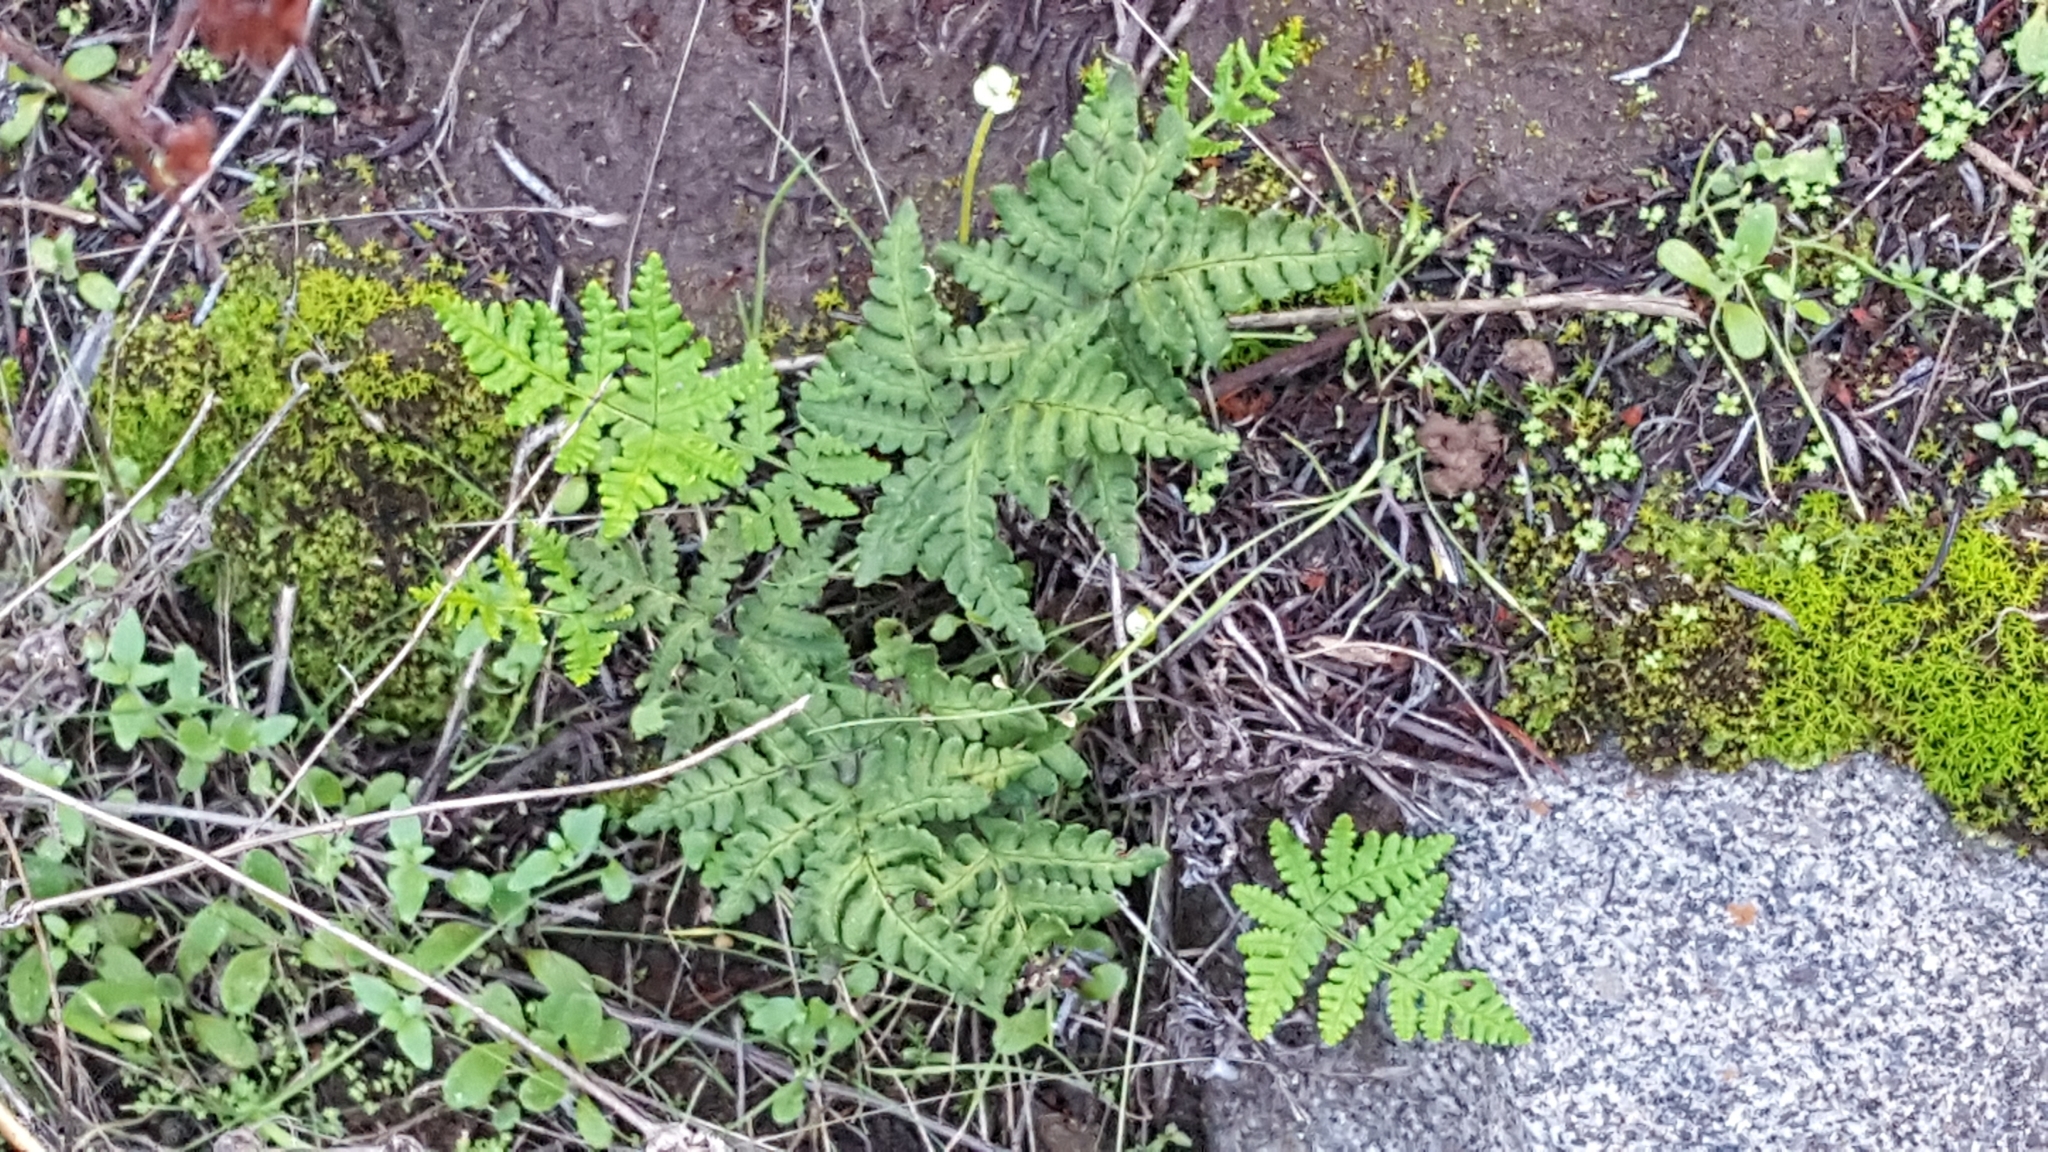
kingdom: Plantae
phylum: Tracheophyta
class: Polypodiopsida
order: Polypodiales
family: Pteridaceae
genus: Pentagramma
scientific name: Pentagramma triangularis
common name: Gold fern
